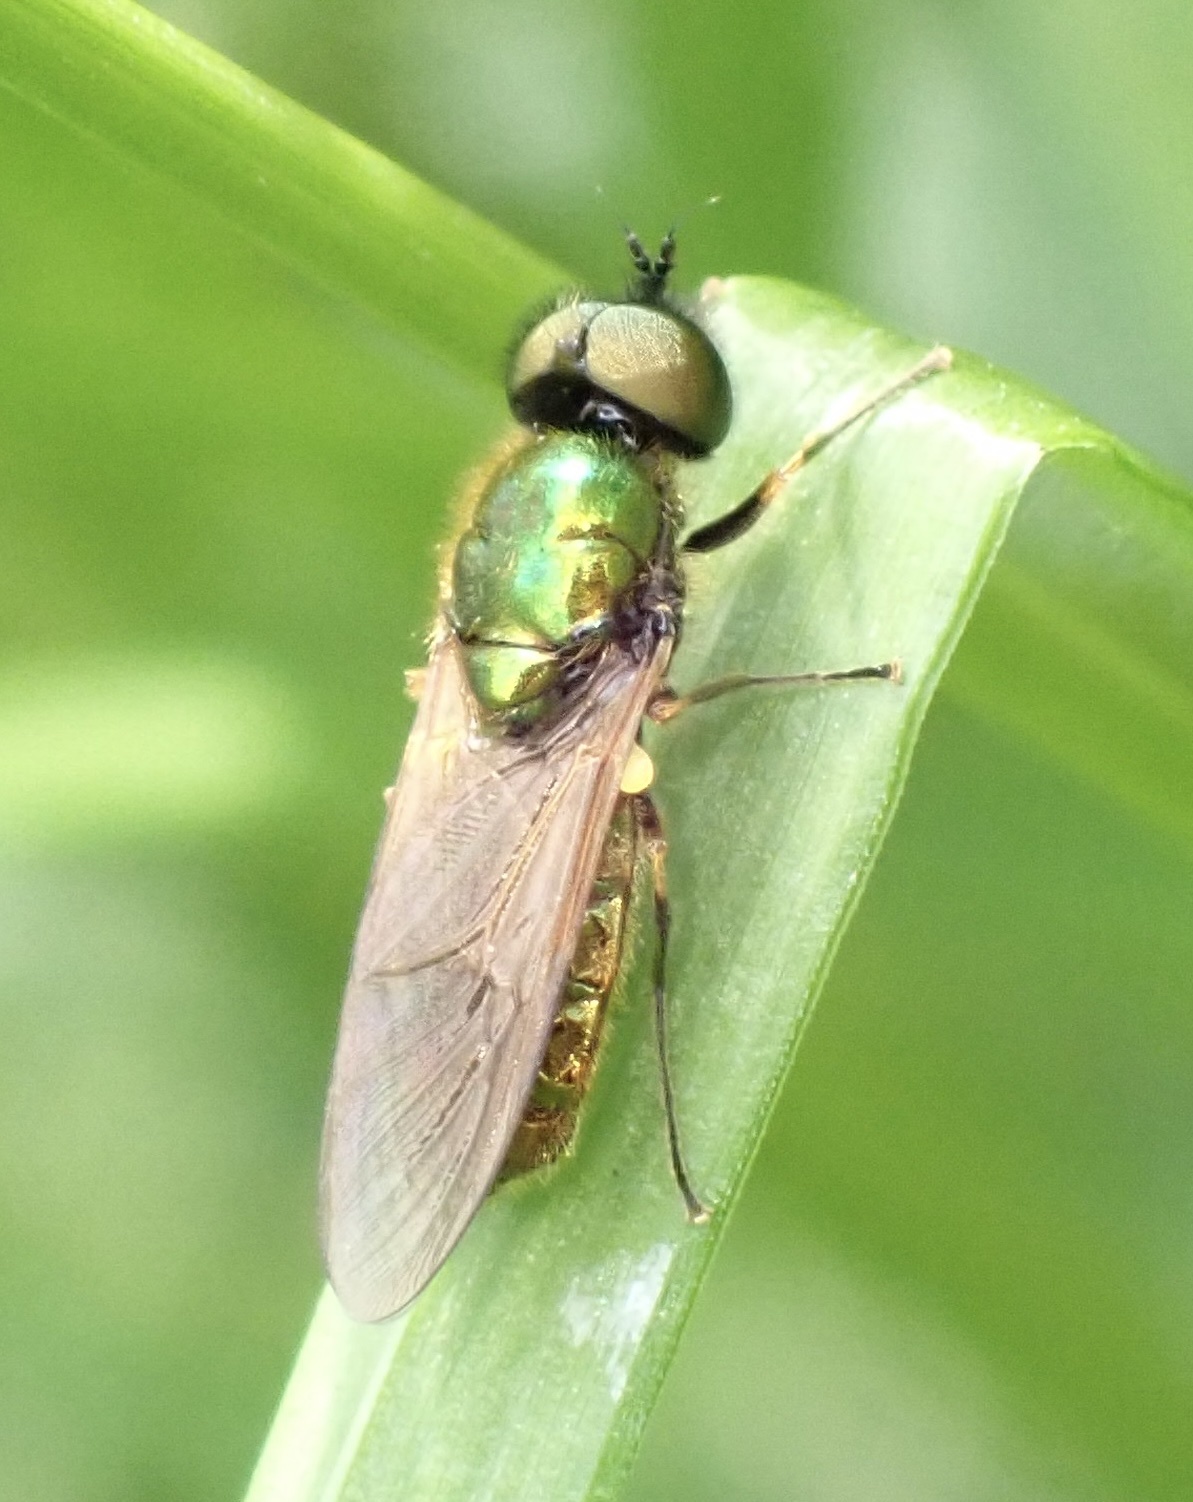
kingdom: Animalia
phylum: Arthropoda
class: Insecta
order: Diptera
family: Stratiomyidae
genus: Chloromyia
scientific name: Chloromyia formosa
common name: Soldier fly
